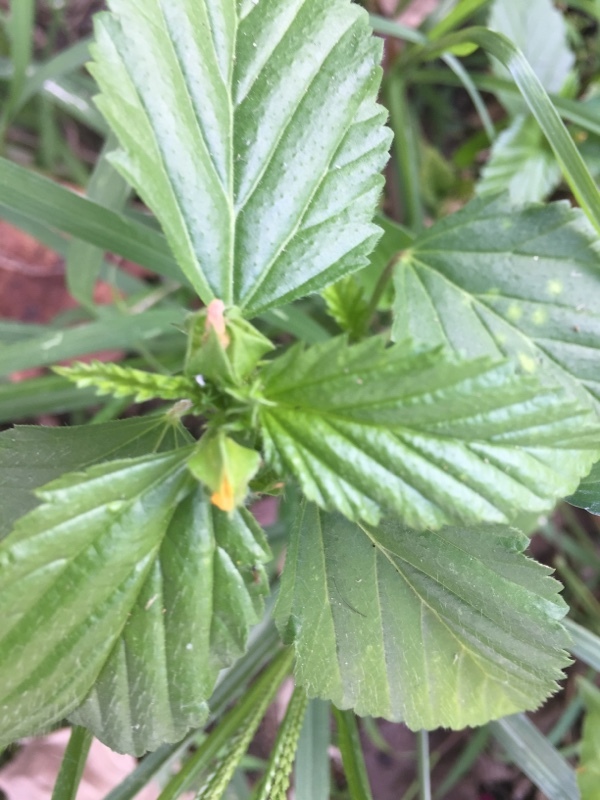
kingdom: Plantae
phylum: Tracheophyta
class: Magnoliopsida
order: Malvales
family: Malvaceae
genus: Malvastrum
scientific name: Malvastrum coromandelianum
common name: Threelobe false mallow
